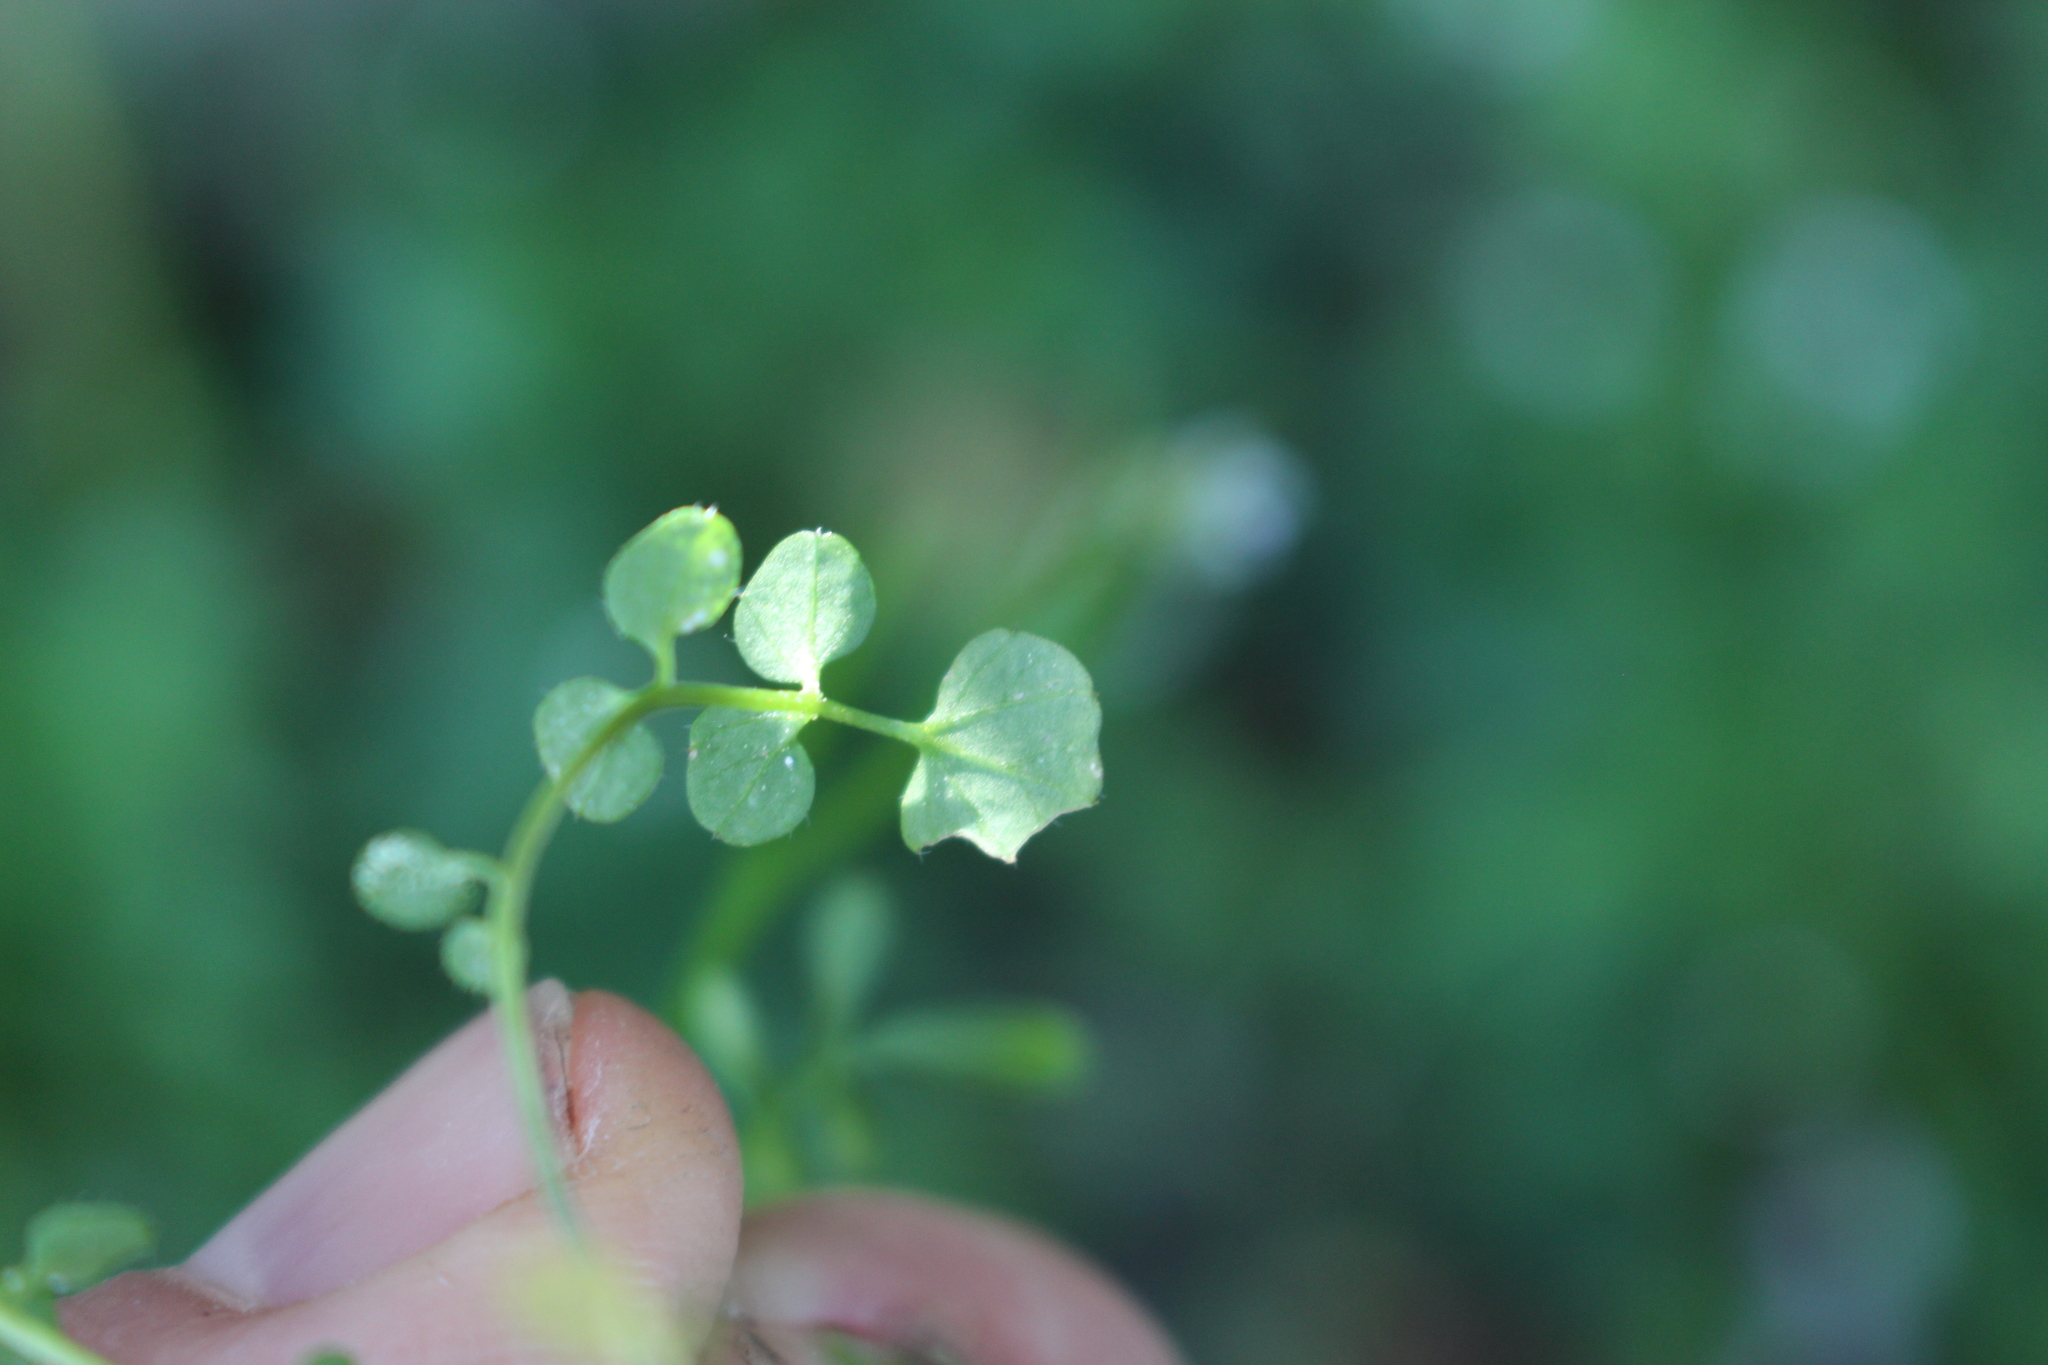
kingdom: Plantae
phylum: Tracheophyta
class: Magnoliopsida
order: Brassicales
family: Brassicaceae
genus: Cardamine
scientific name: Cardamine hirsuta
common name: Hairy bittercress
